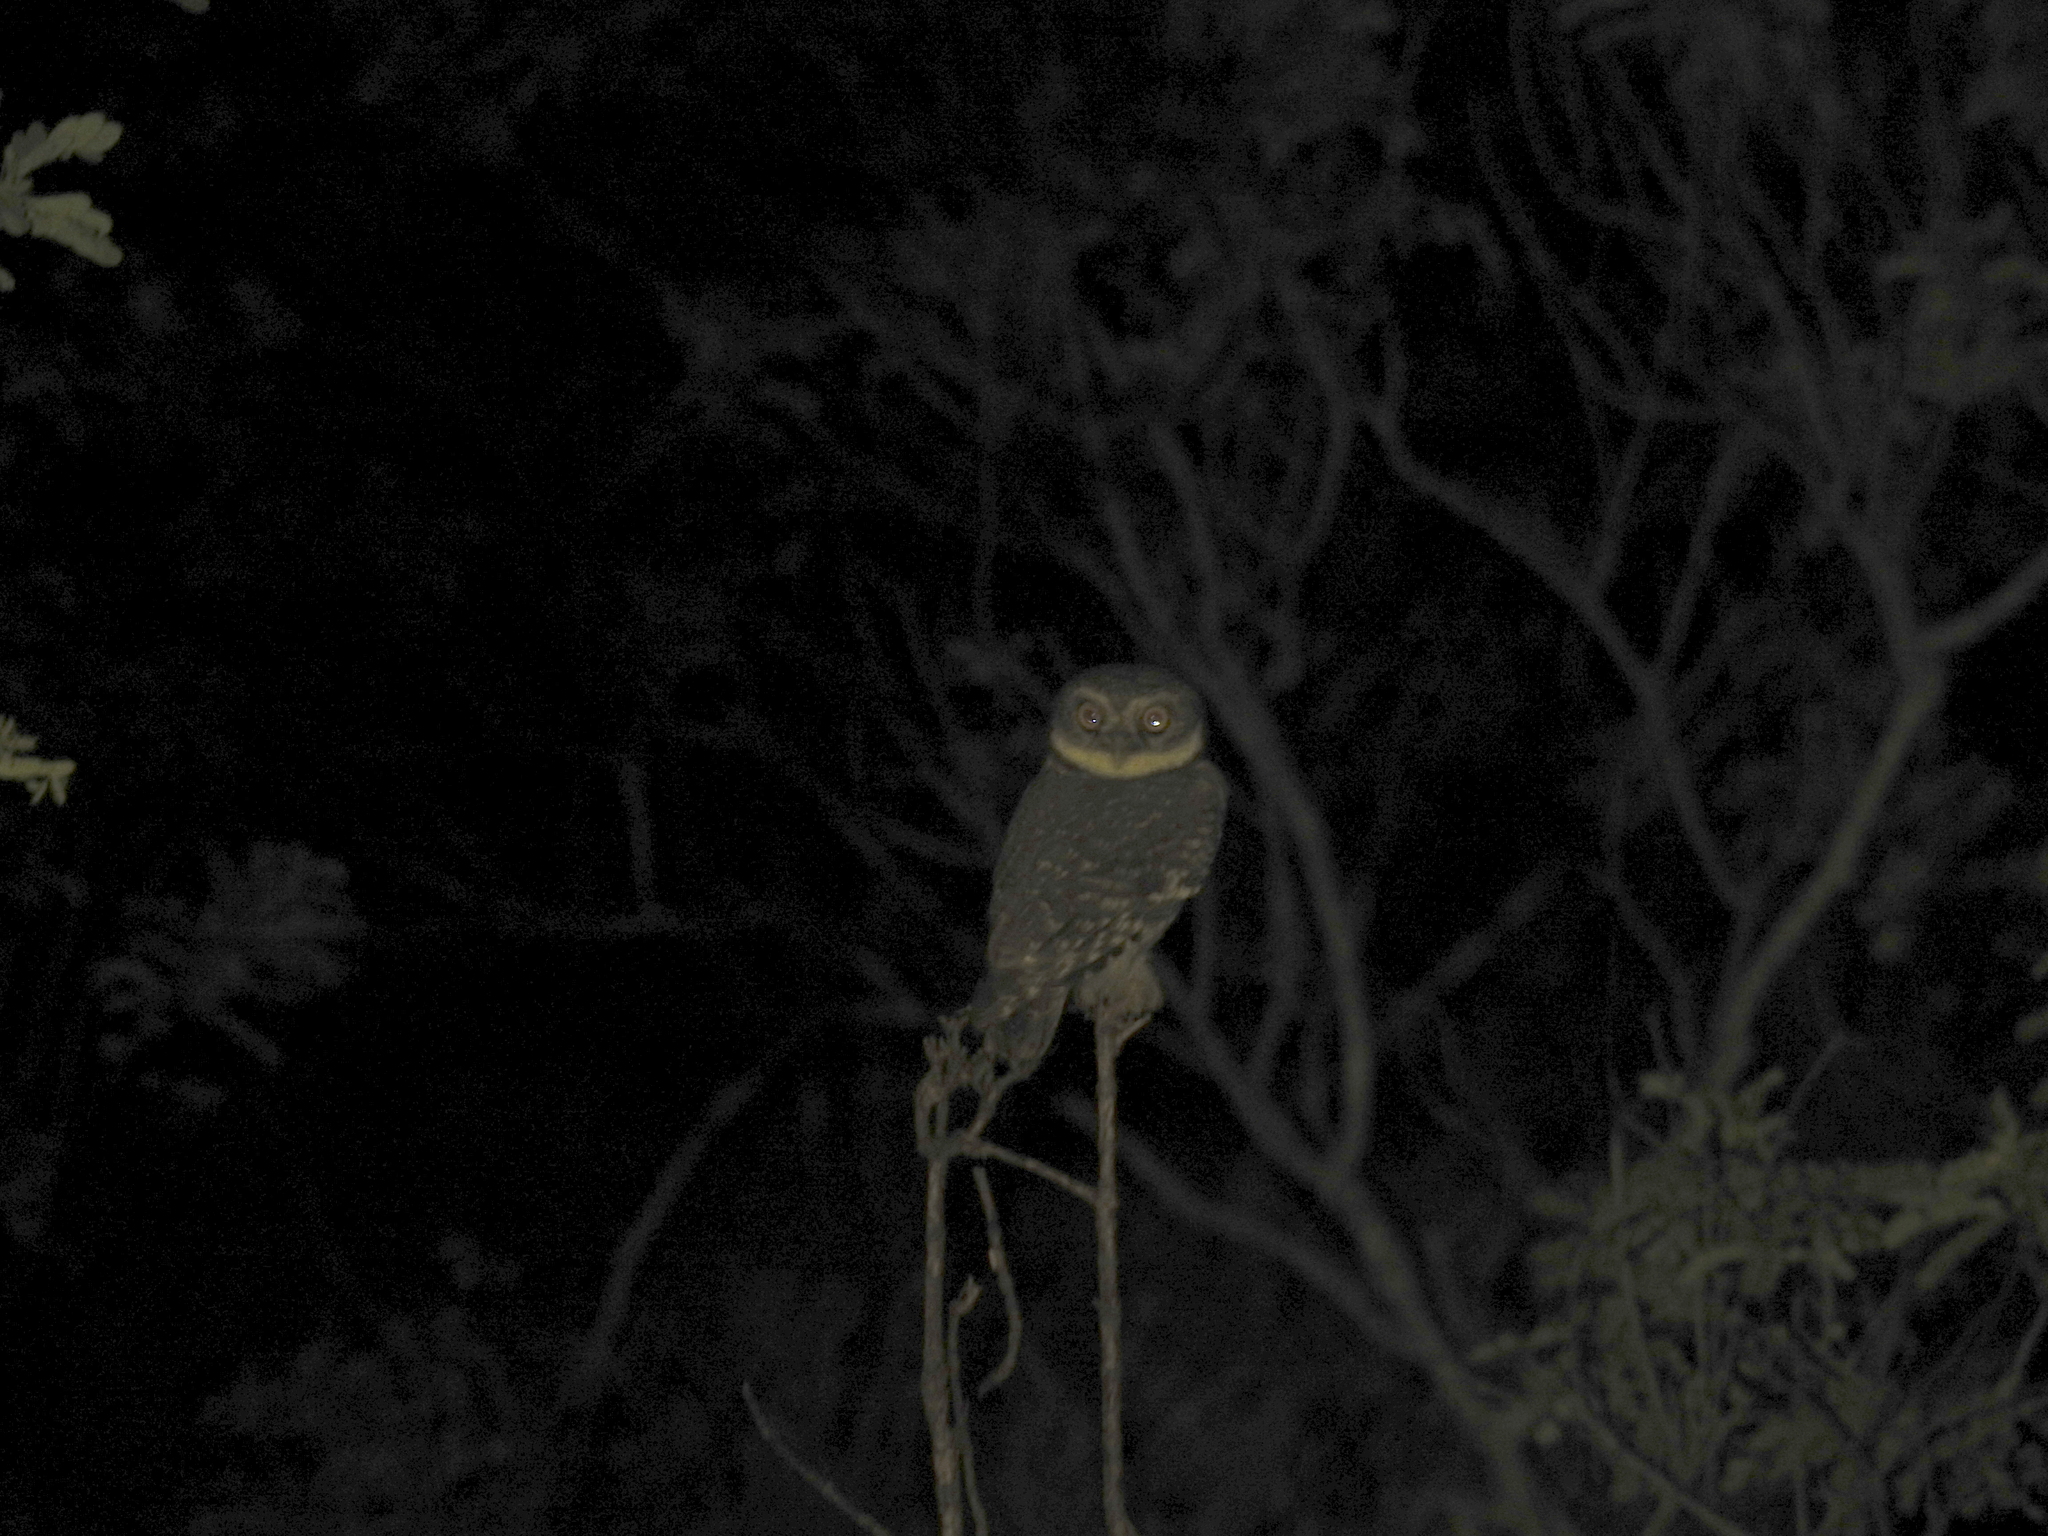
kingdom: Animalia
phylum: Chordata
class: Aves
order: Strigiformes
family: Strigidae
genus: Athene
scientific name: Athene brama
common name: Spotted owlet
